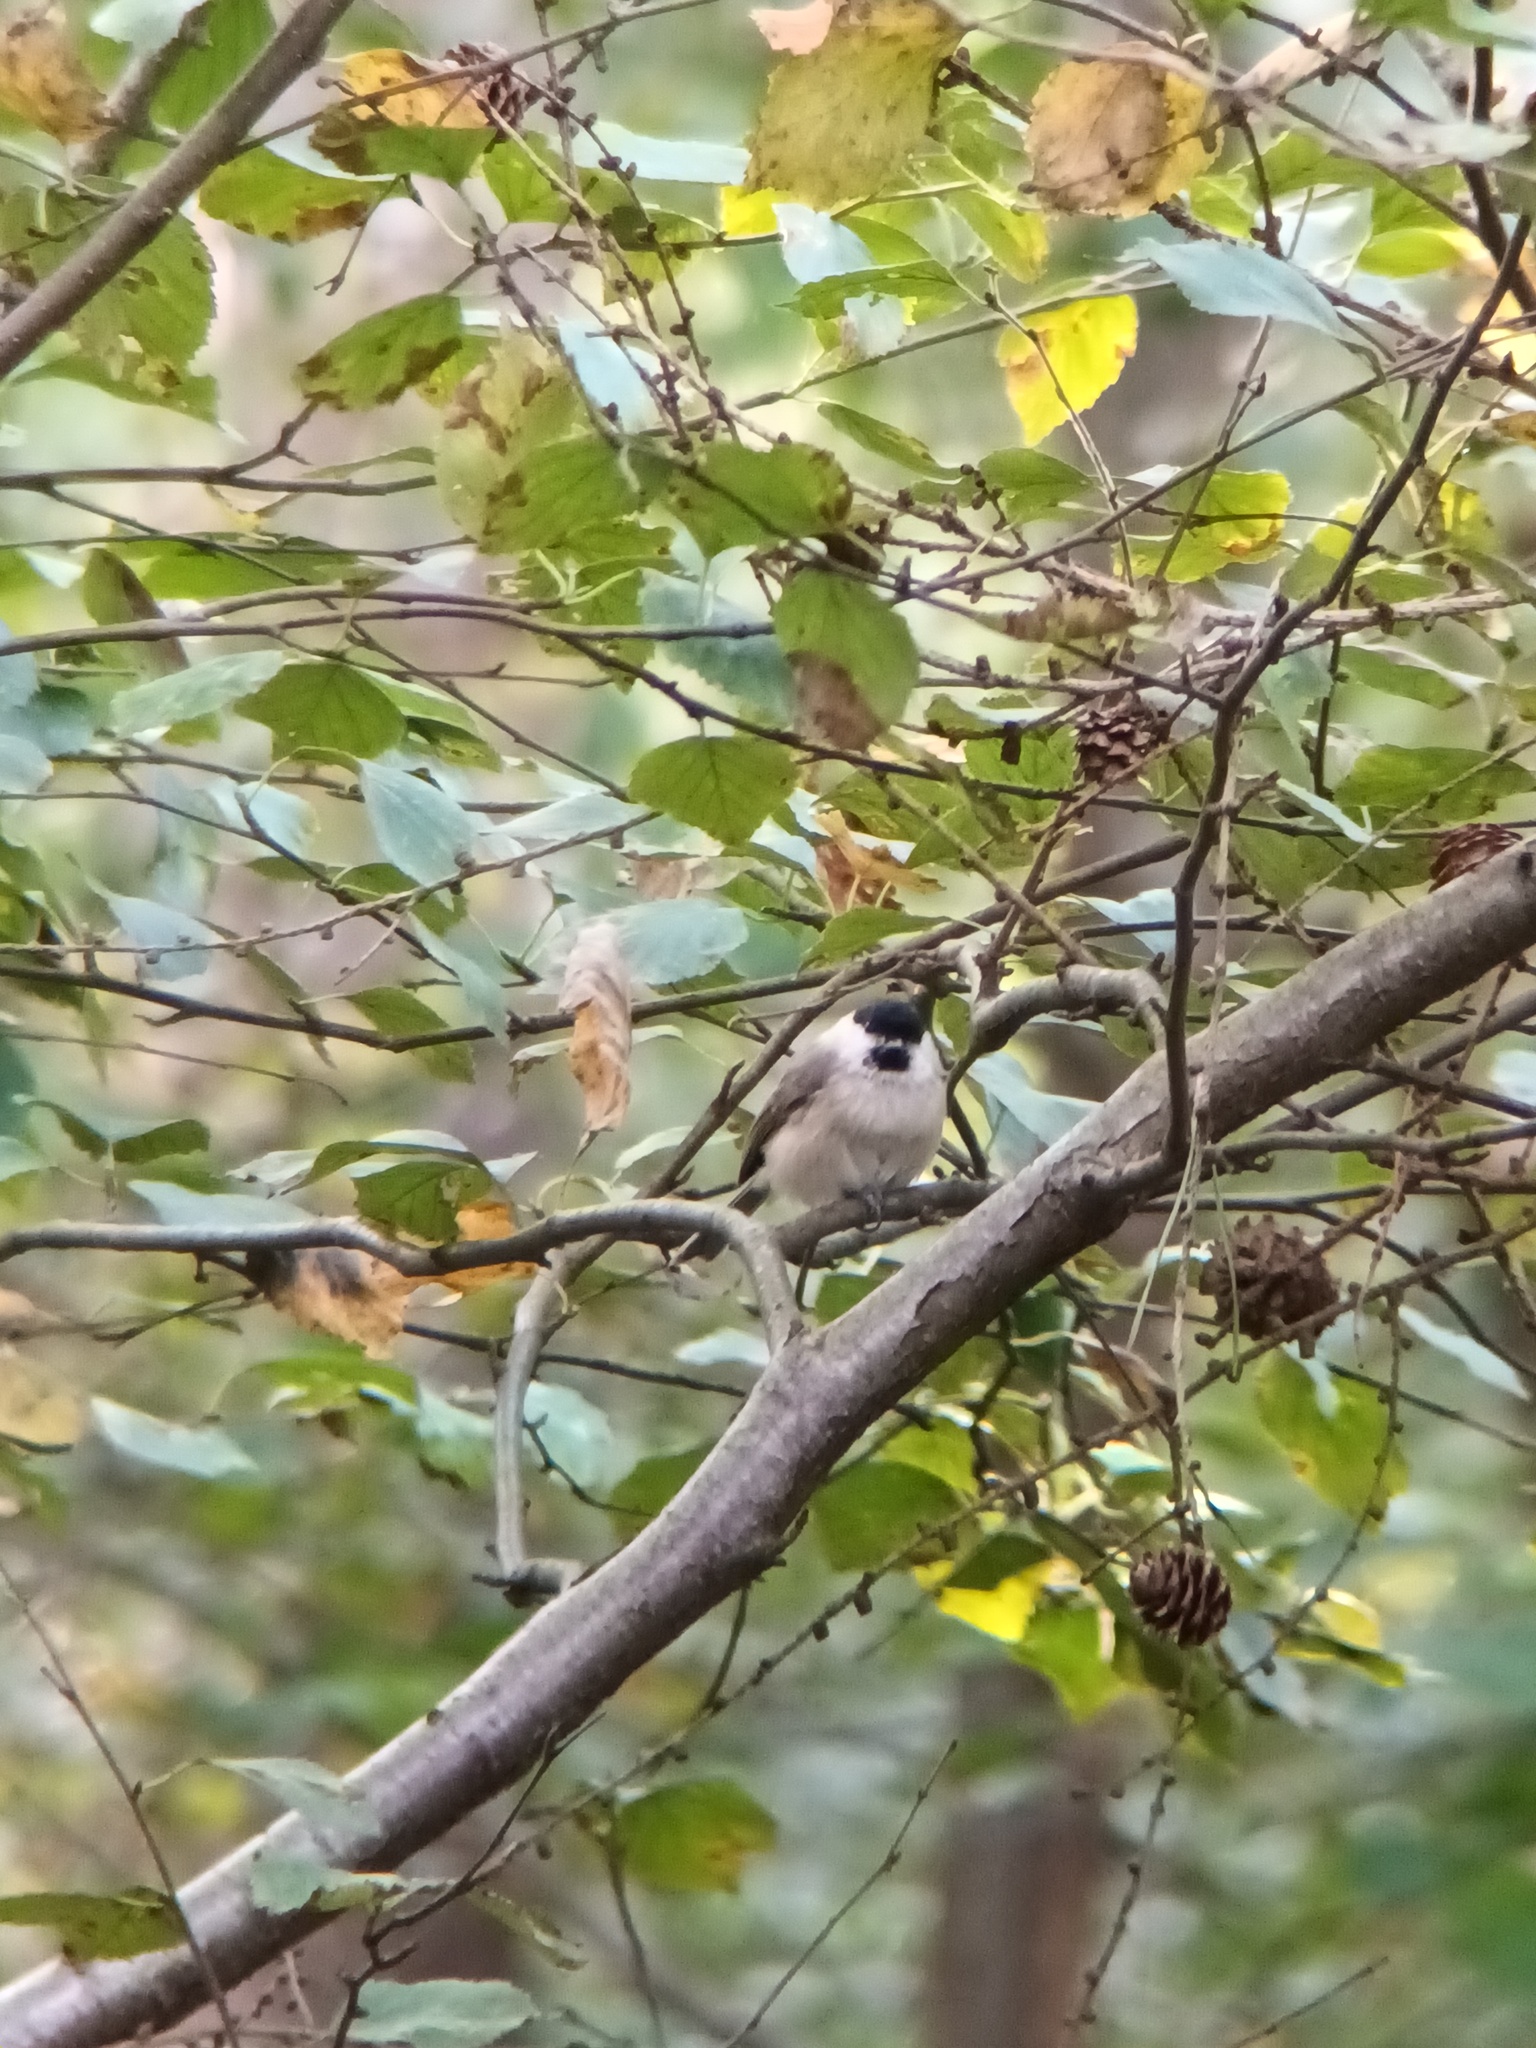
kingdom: Animalia
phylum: Chordata
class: Aves
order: Passeriformes
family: Paridae
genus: Poecile
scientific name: Poecile palustris
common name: Marsh tit
